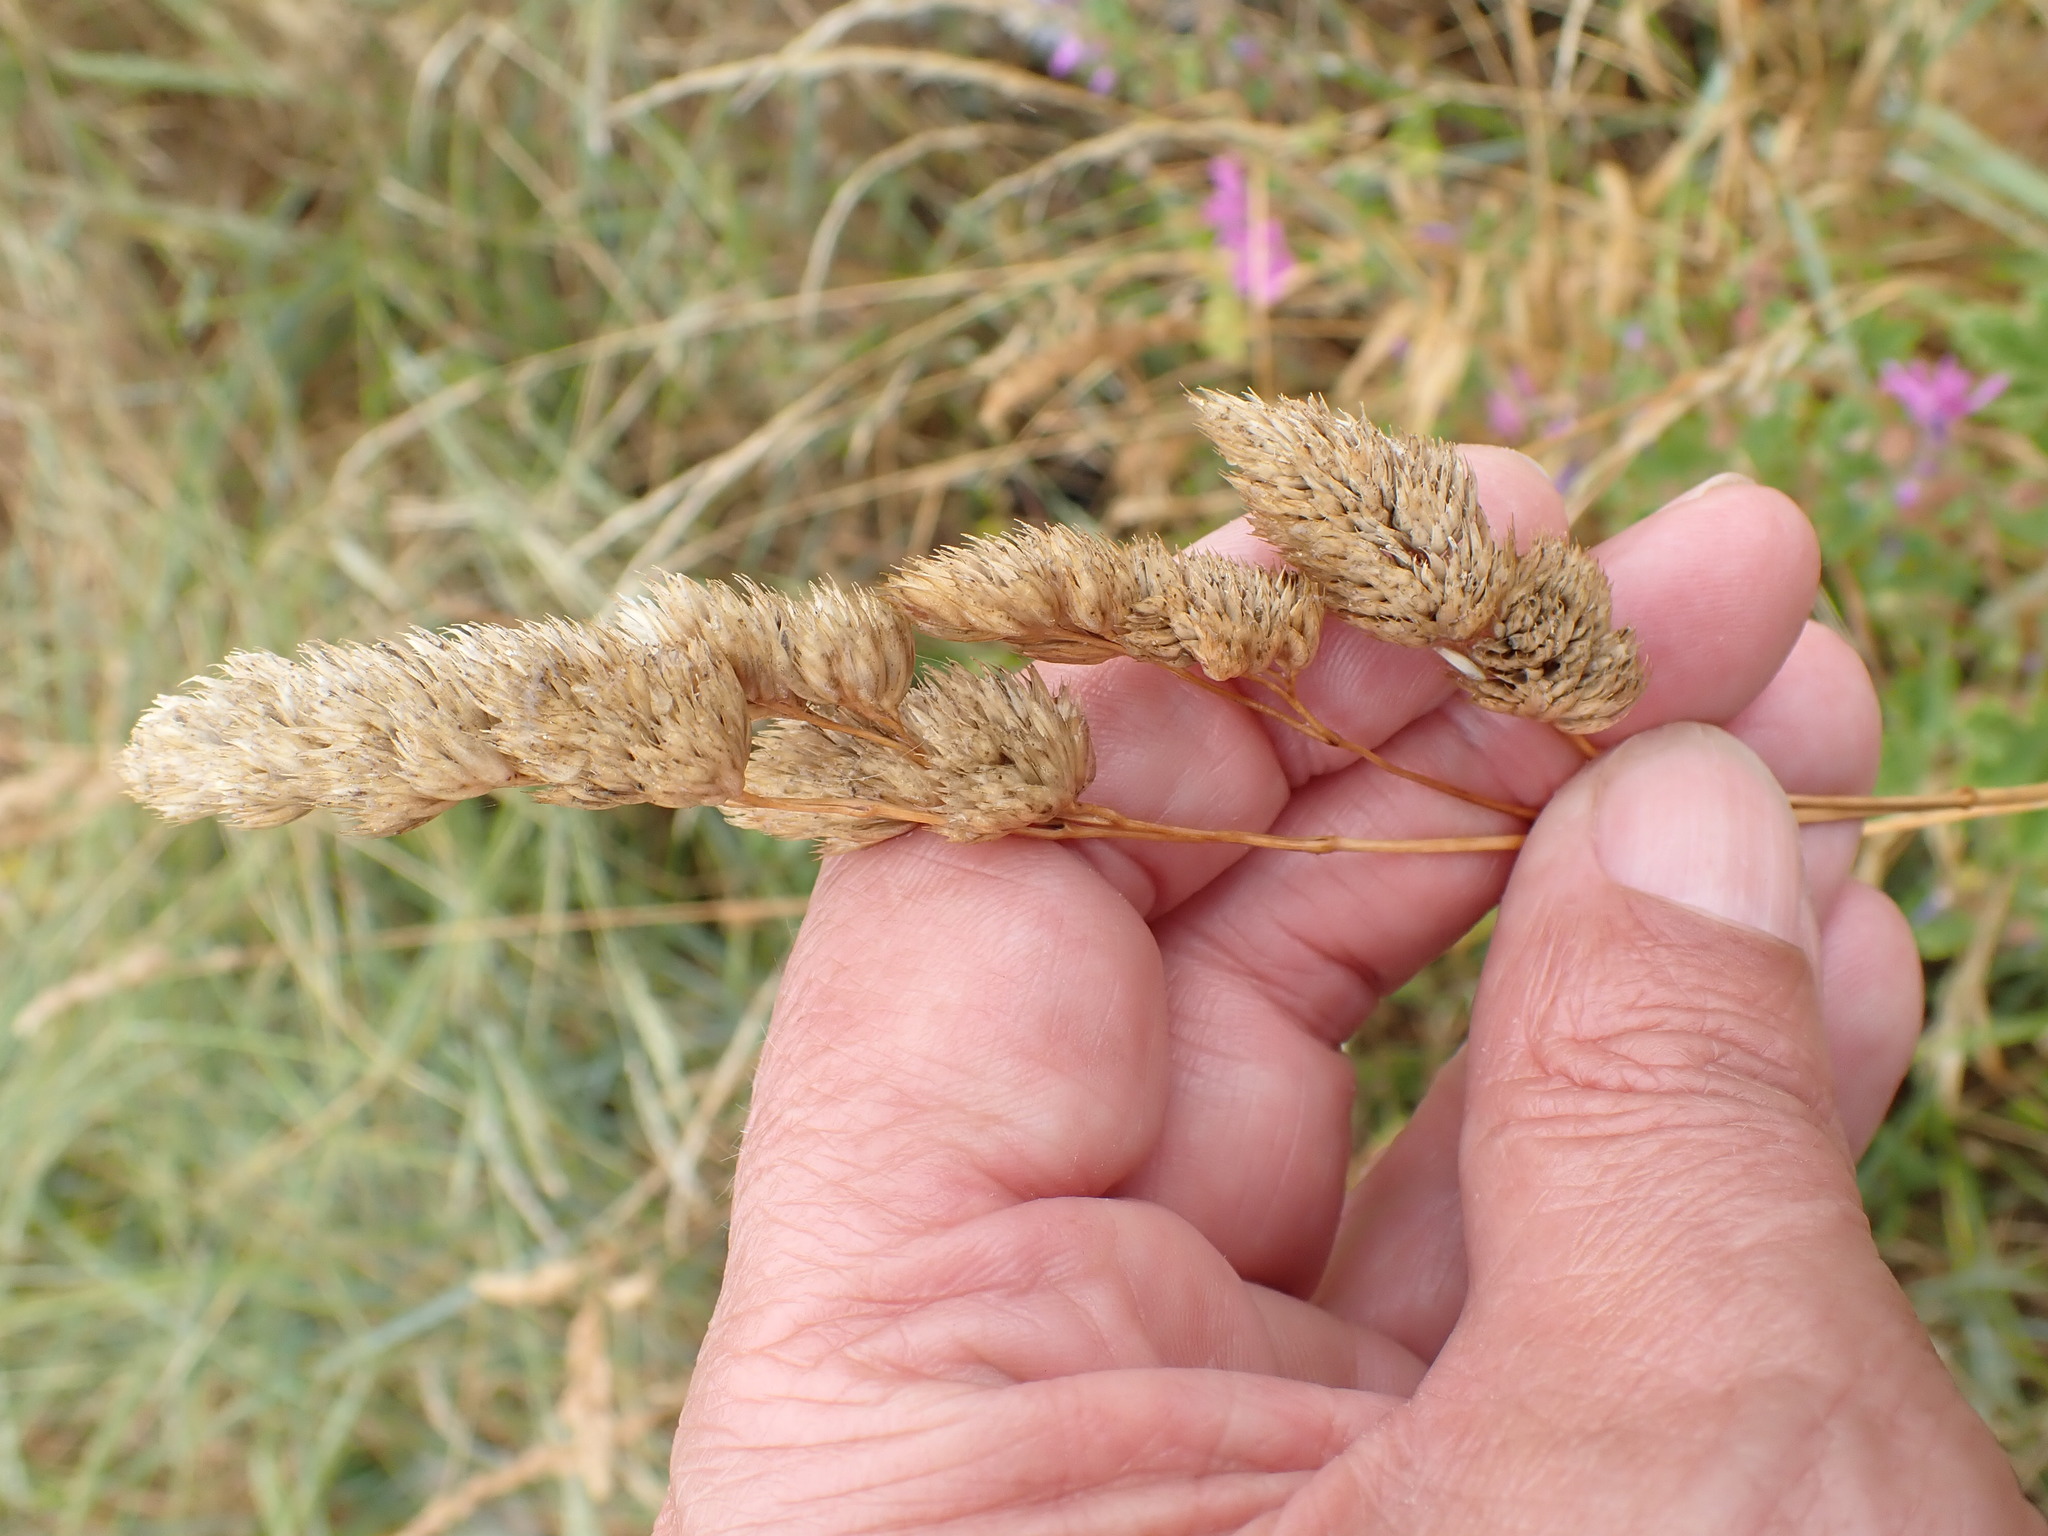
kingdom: Plantae
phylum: Tracheophyta
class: Liliopsida
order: Poales
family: Poaceae
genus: Dactylis
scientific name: Dactylis glomerata
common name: Orchardgrass
